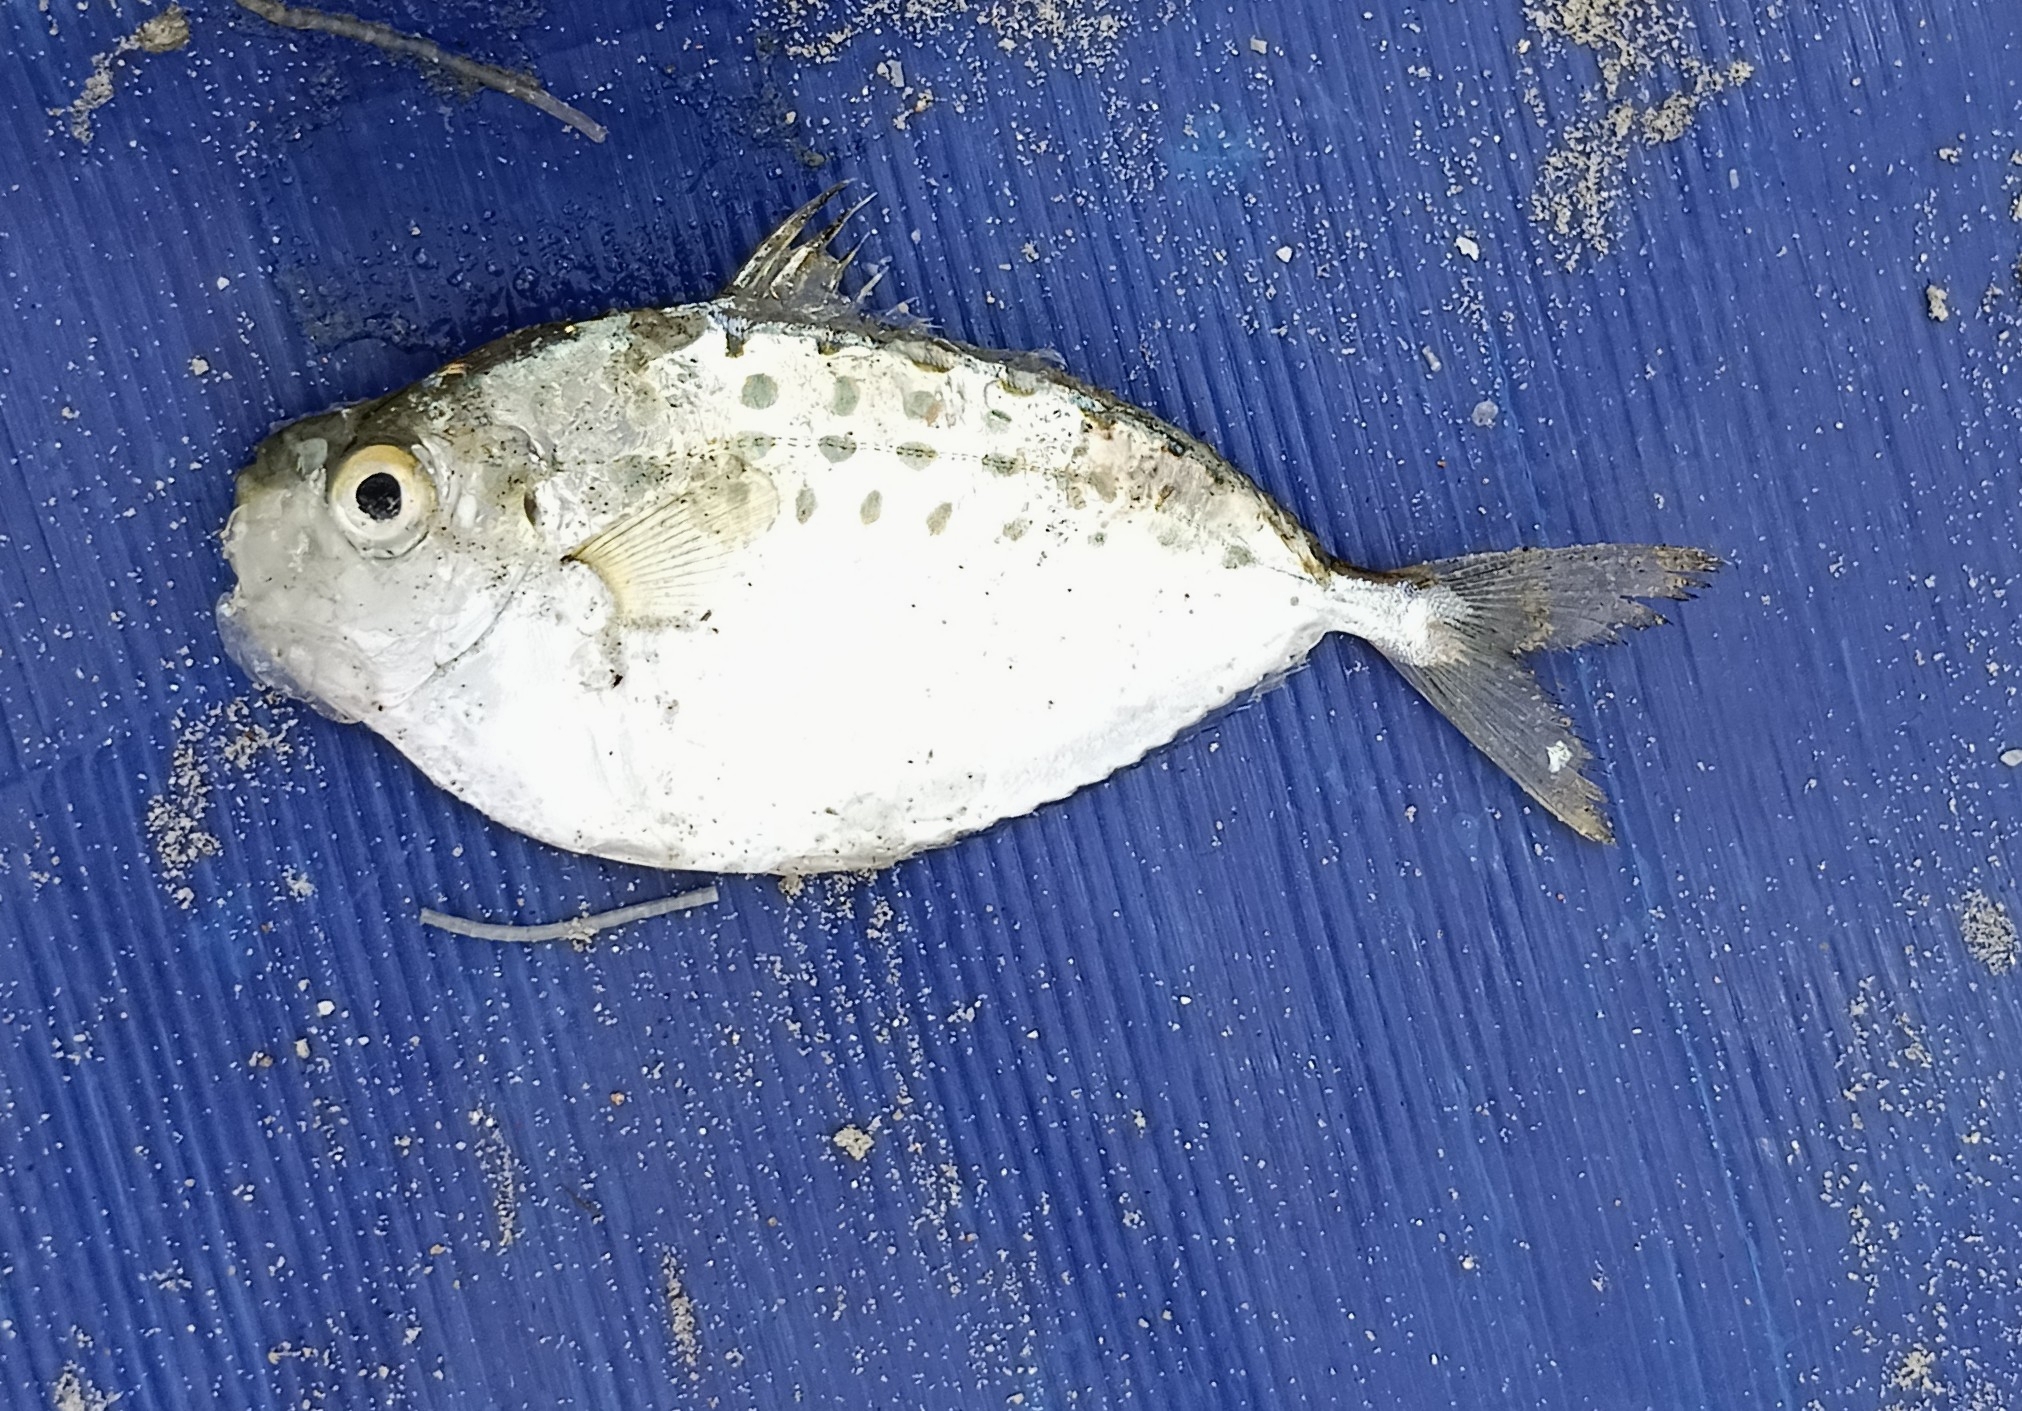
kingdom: Animalia
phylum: Chordata
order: Perciformes
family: Leiognathidae
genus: Secutor
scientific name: Secutor insidiator
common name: Pugnose ponyfish
